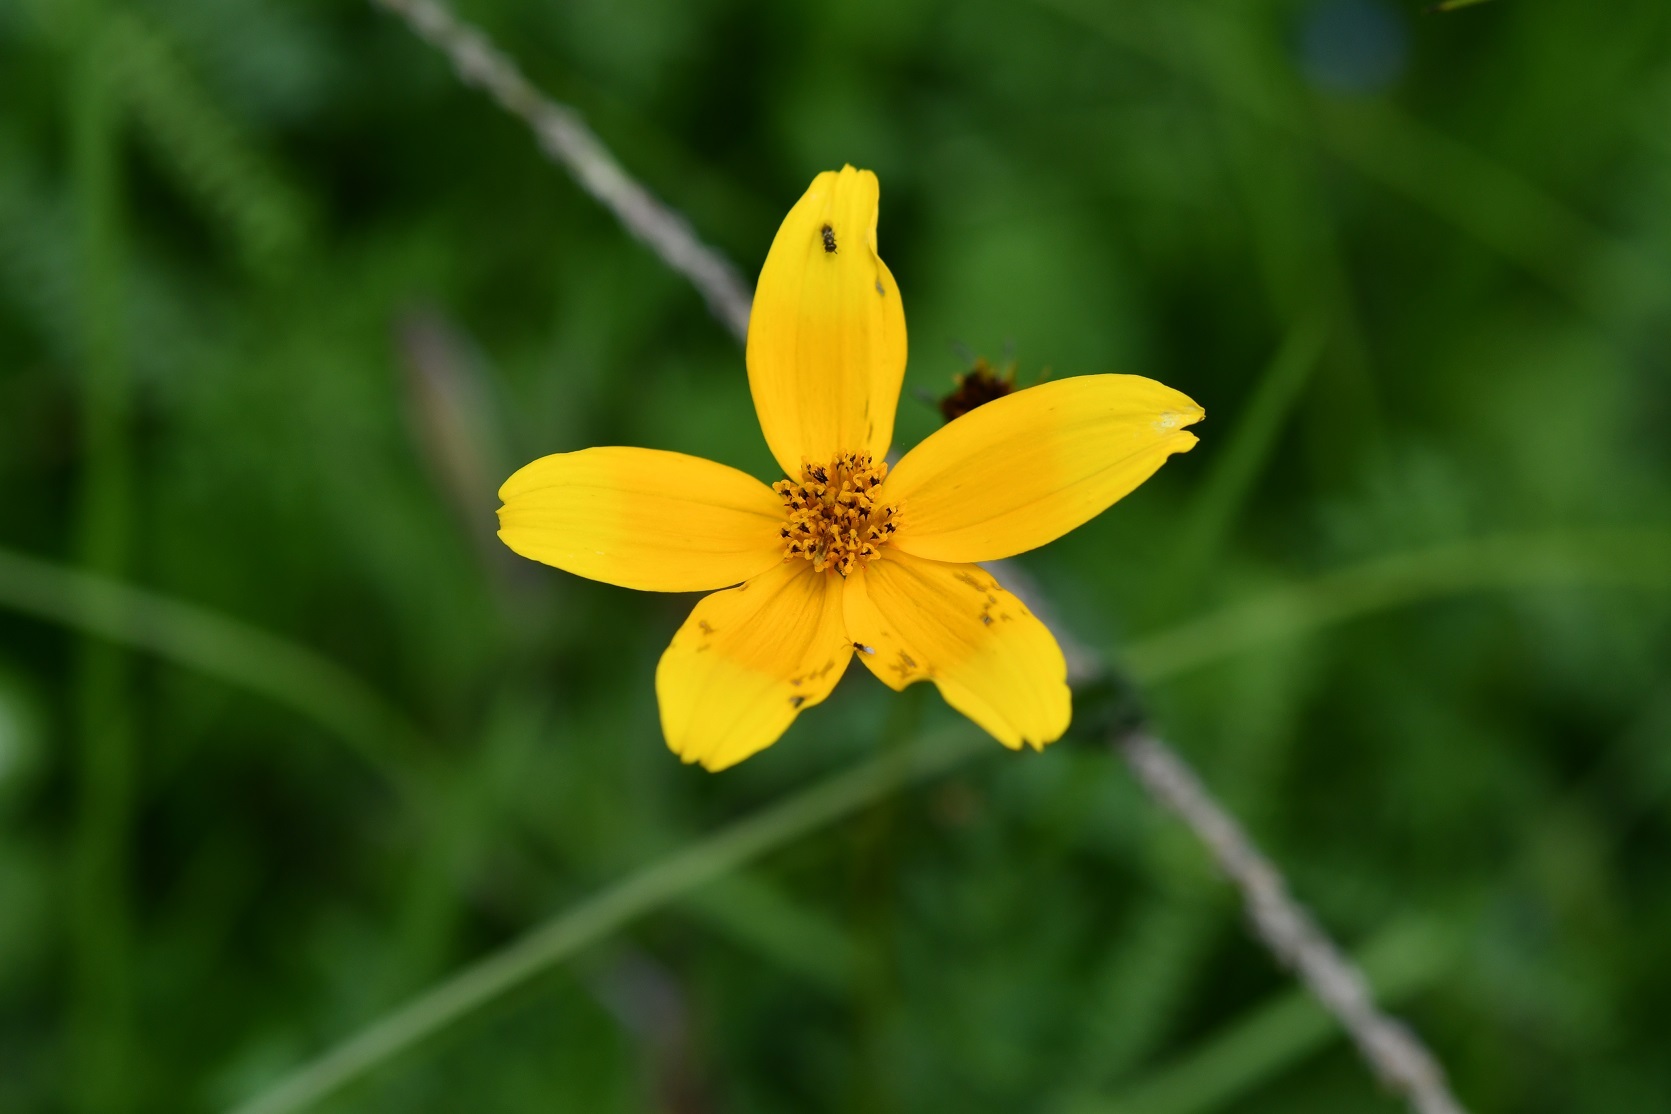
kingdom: Plantae
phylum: Tracheophyta
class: Magnoliopsida
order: Asterales
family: Asteraceae
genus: Bidens
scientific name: Bidens triplinervia
